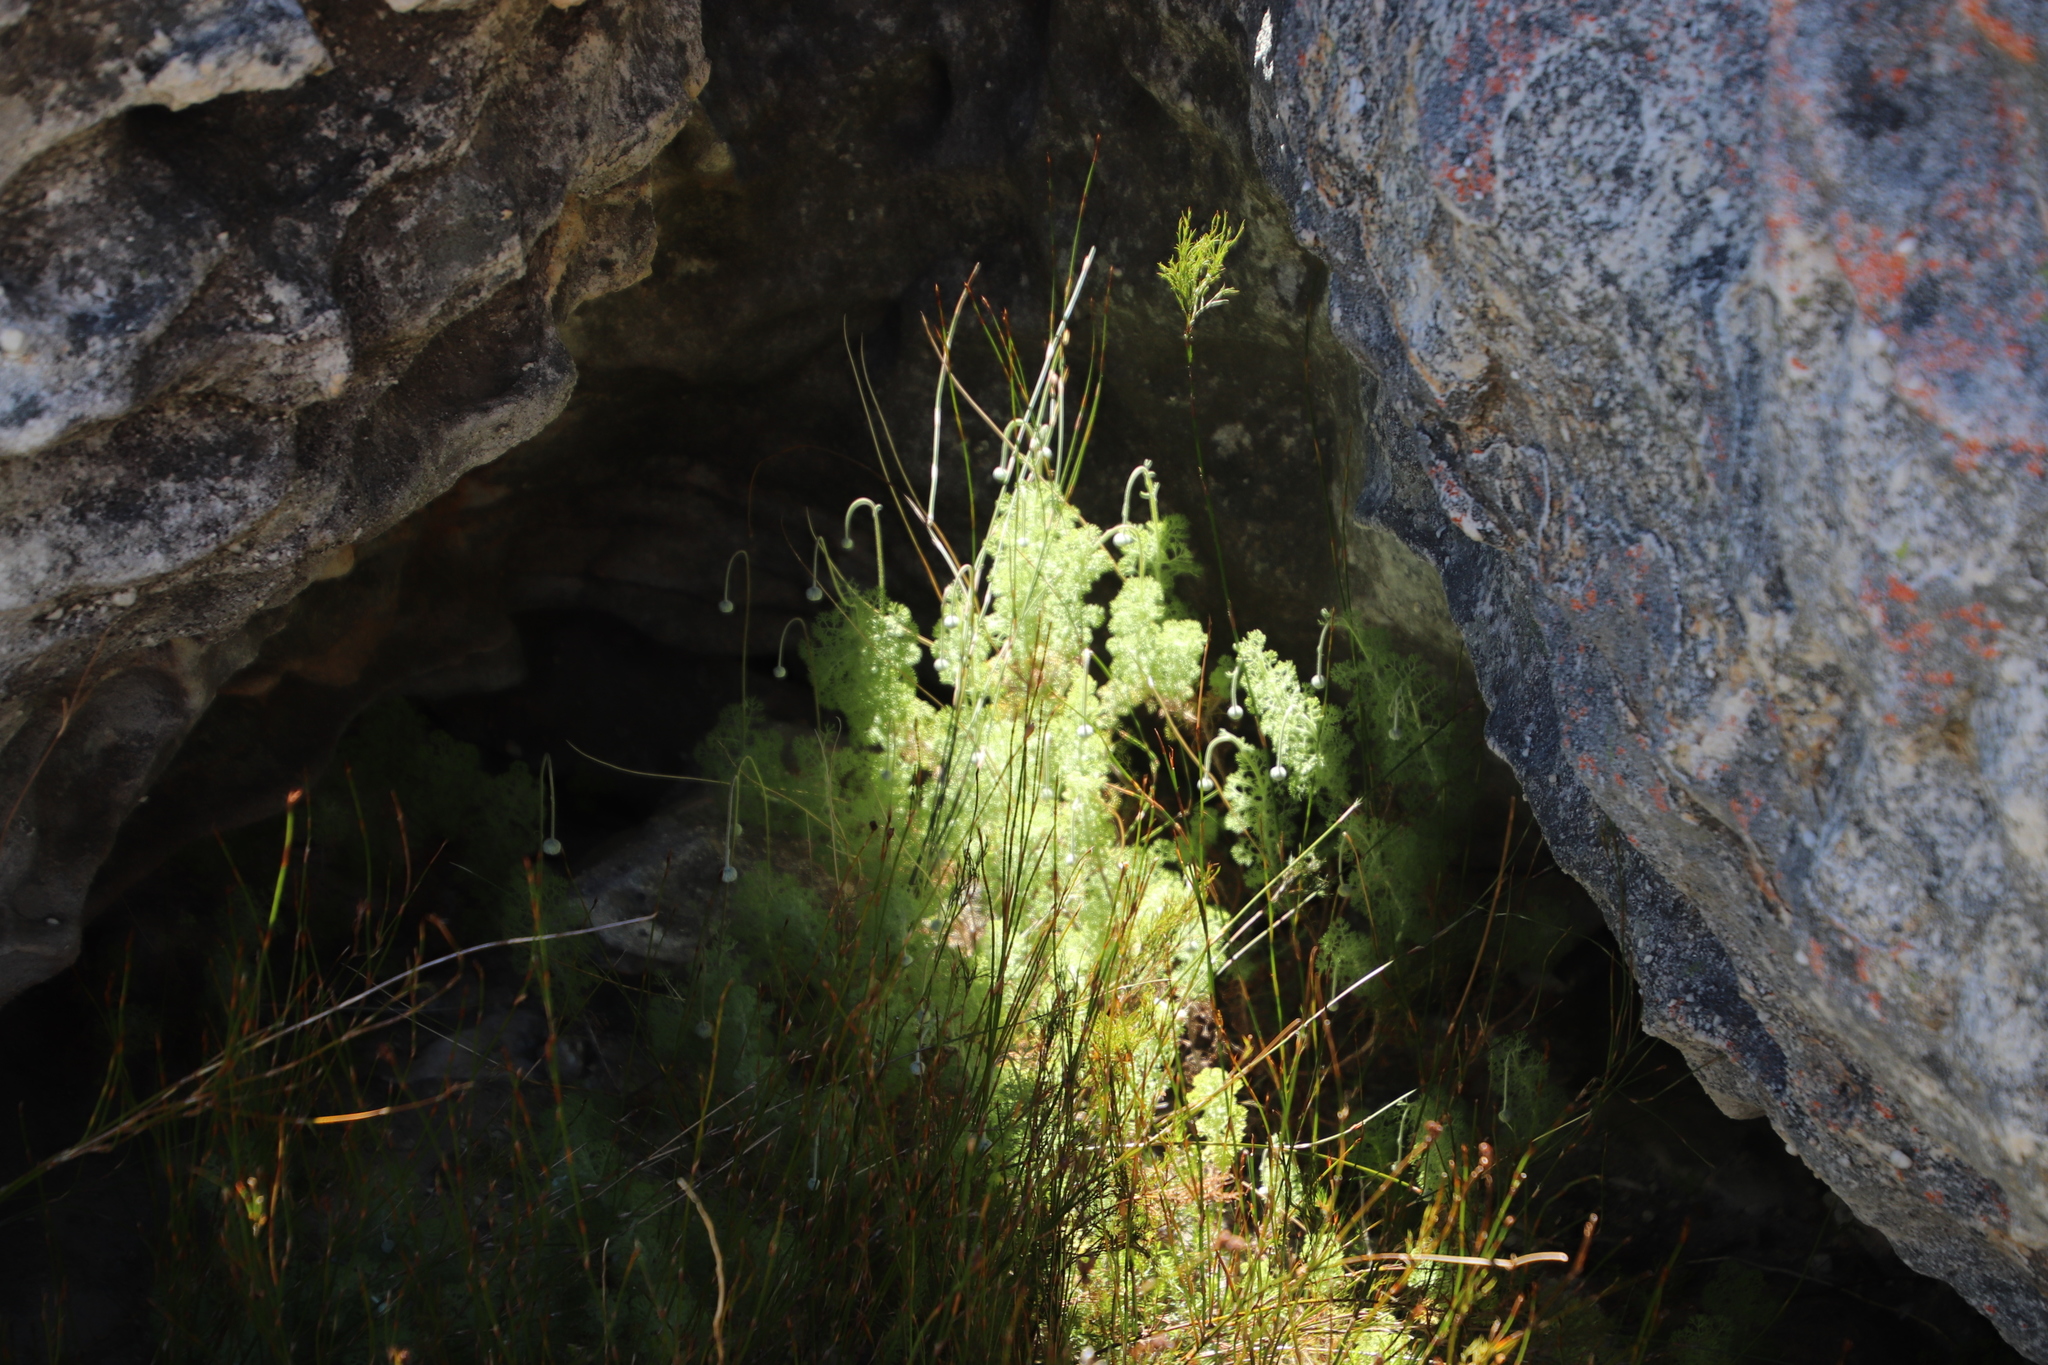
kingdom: Plantae
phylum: Tracheophyta
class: Magnoliopsida
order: Asterales
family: Asteraceae
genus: Ursinia
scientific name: Ursinia sericea
